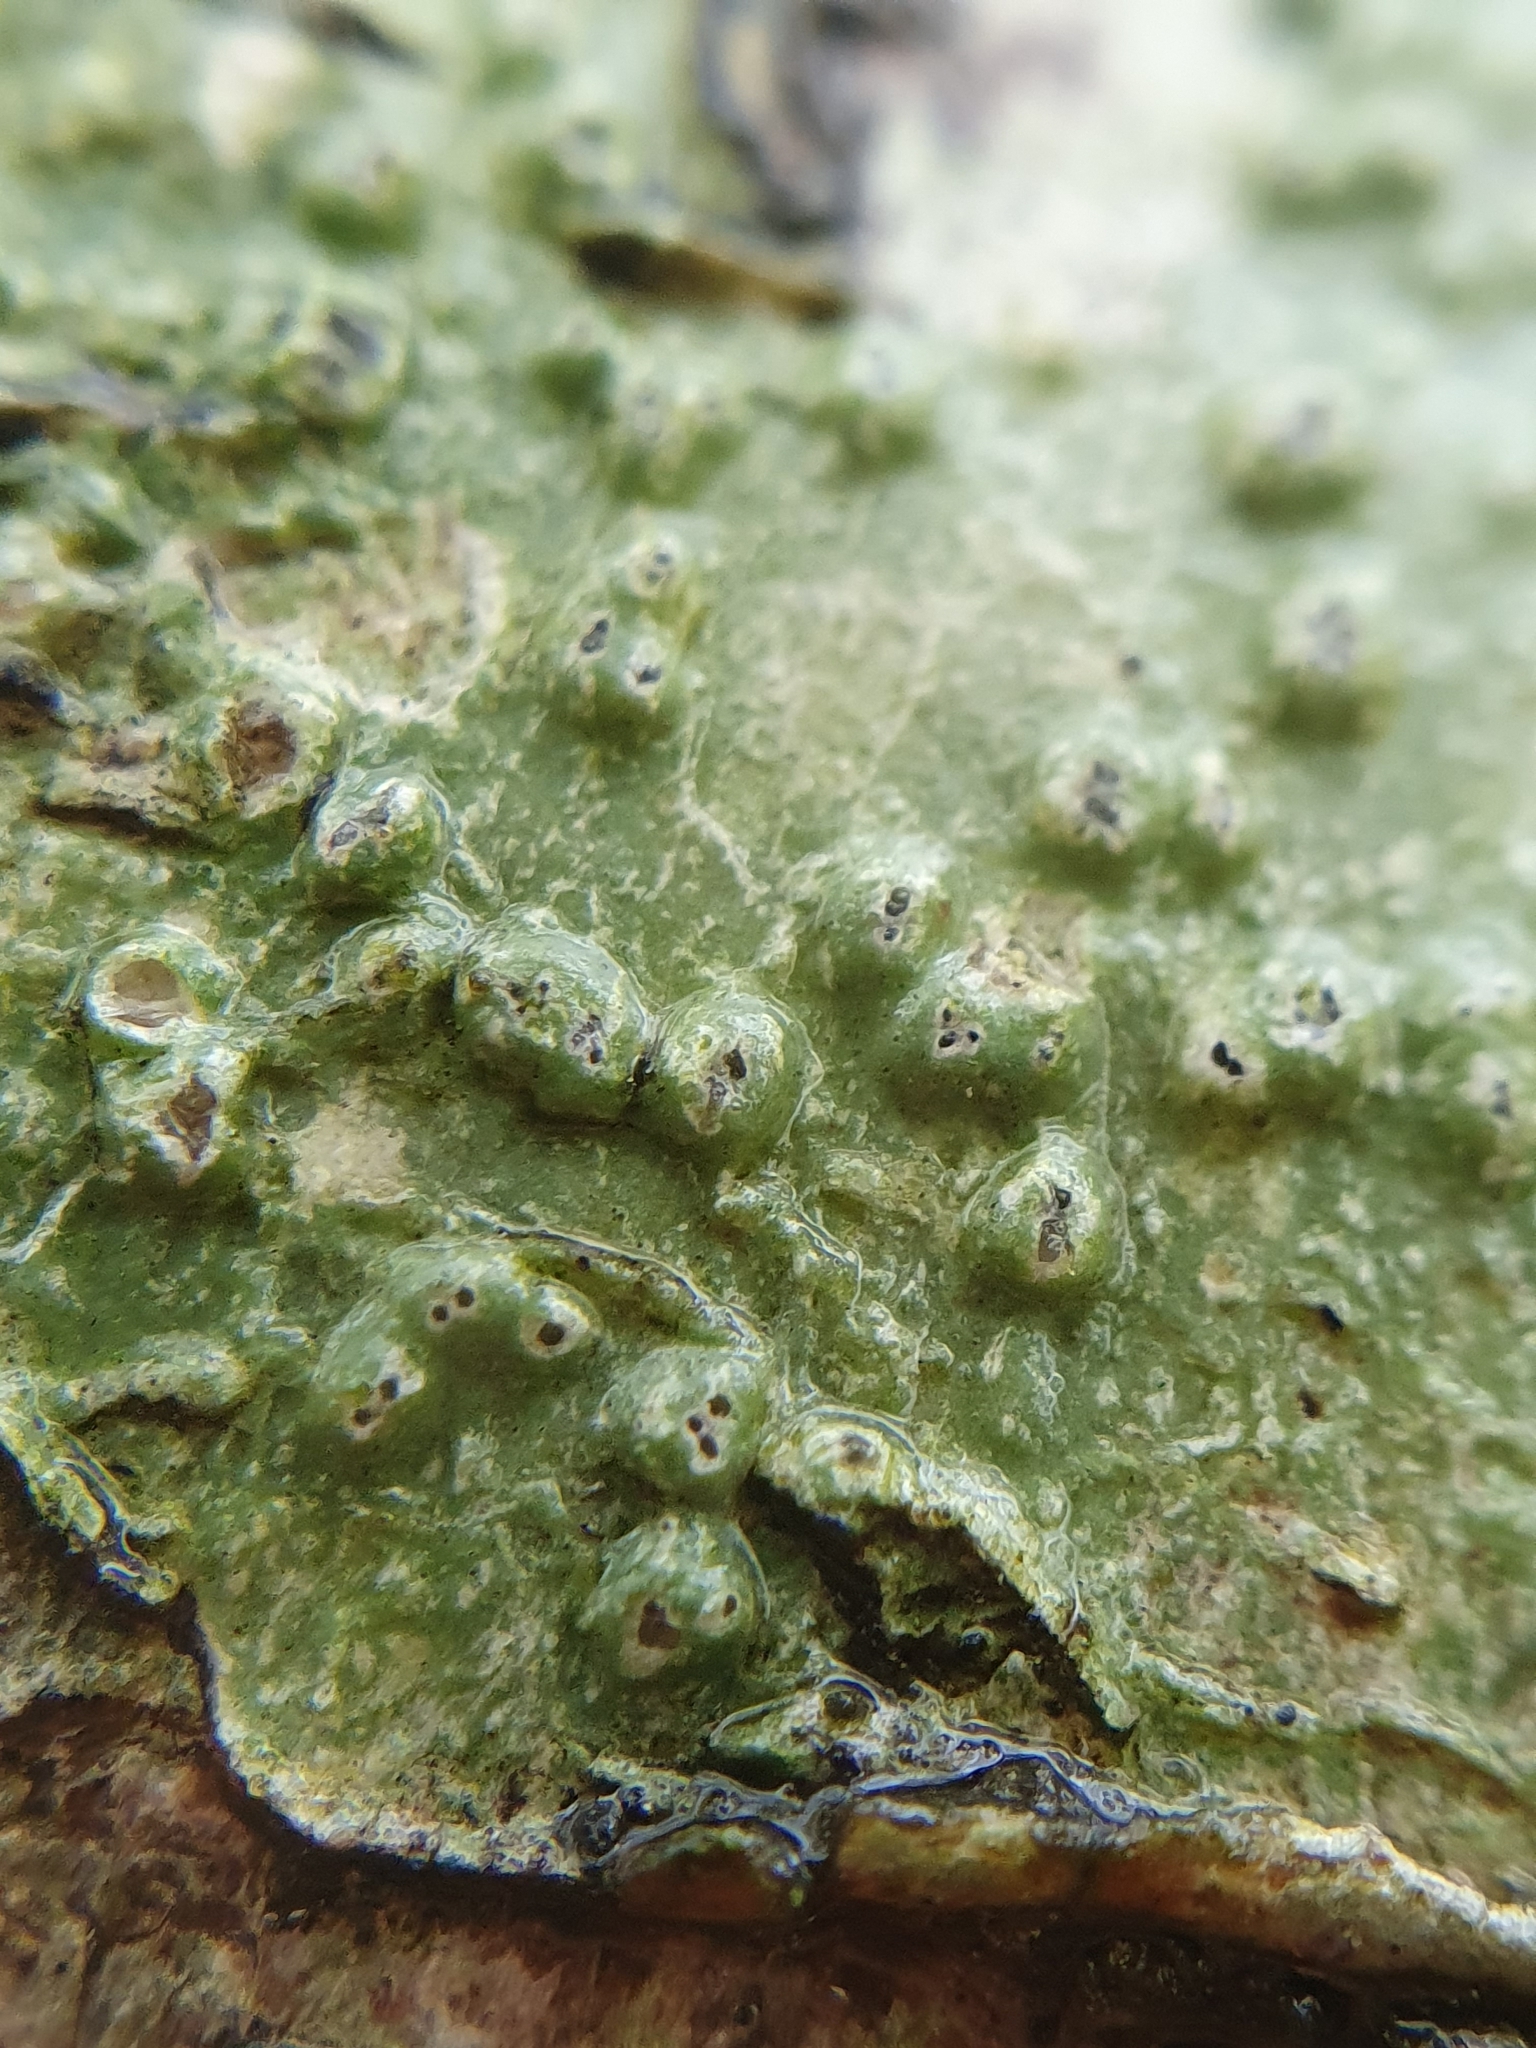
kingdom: Fungi
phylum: Ascomycota
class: Lecanoromycetes
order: Pertusariales
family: Pertusariaceae
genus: Pertusaria
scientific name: Pertusaria leioplaca
